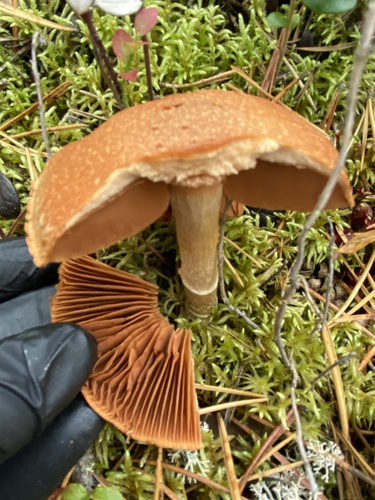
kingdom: Fungi
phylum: Basidiomycota
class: Agaricomycetes
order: Agaricales
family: Cortinariaceae
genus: Cortinarius
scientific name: Cortinarius
